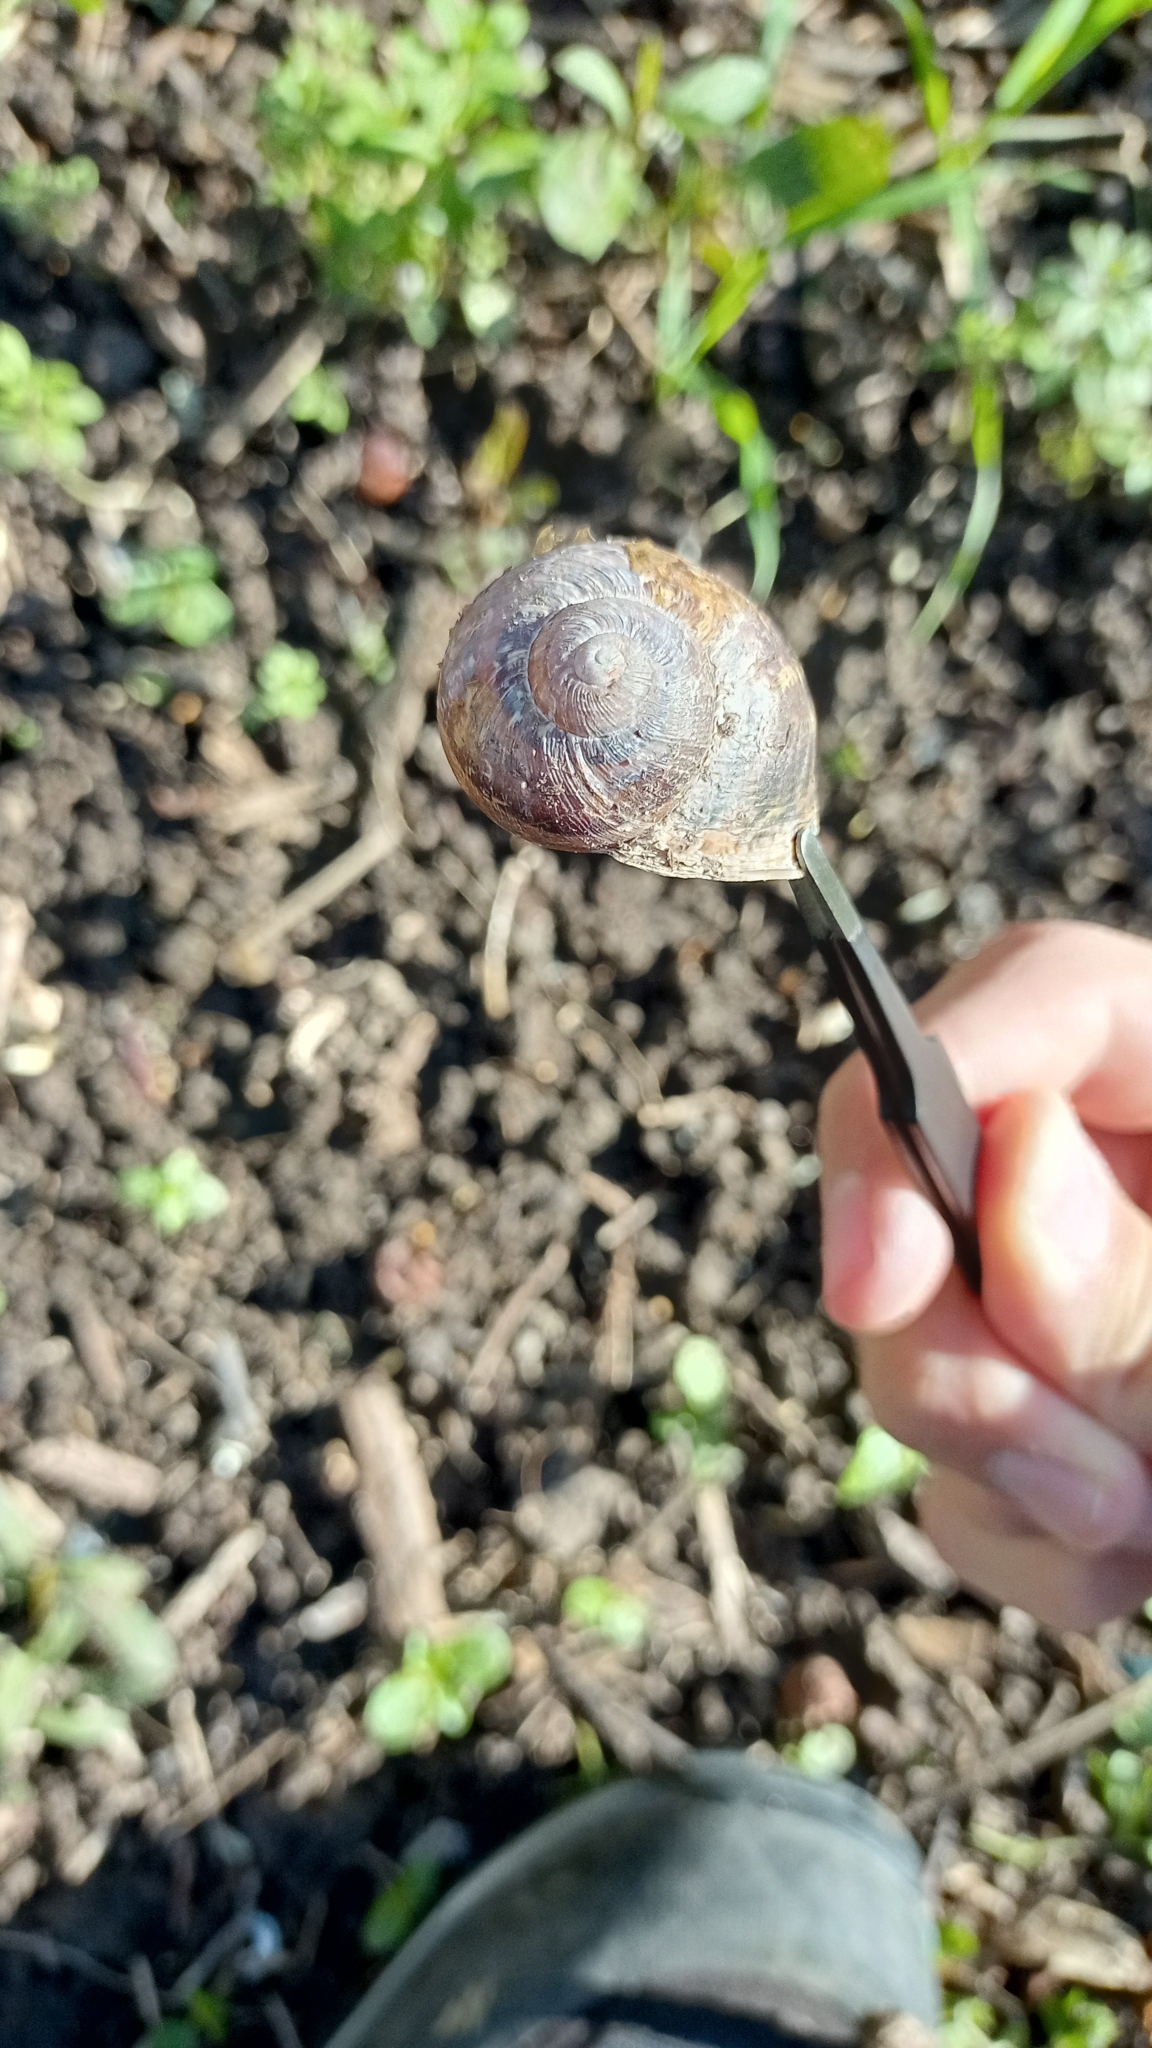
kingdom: Animalia
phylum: Mollusca
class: Gastropoda
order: Stylommatophora
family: Helicidae
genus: Cornu
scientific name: Cornu aspersum
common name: Brown garden snail
